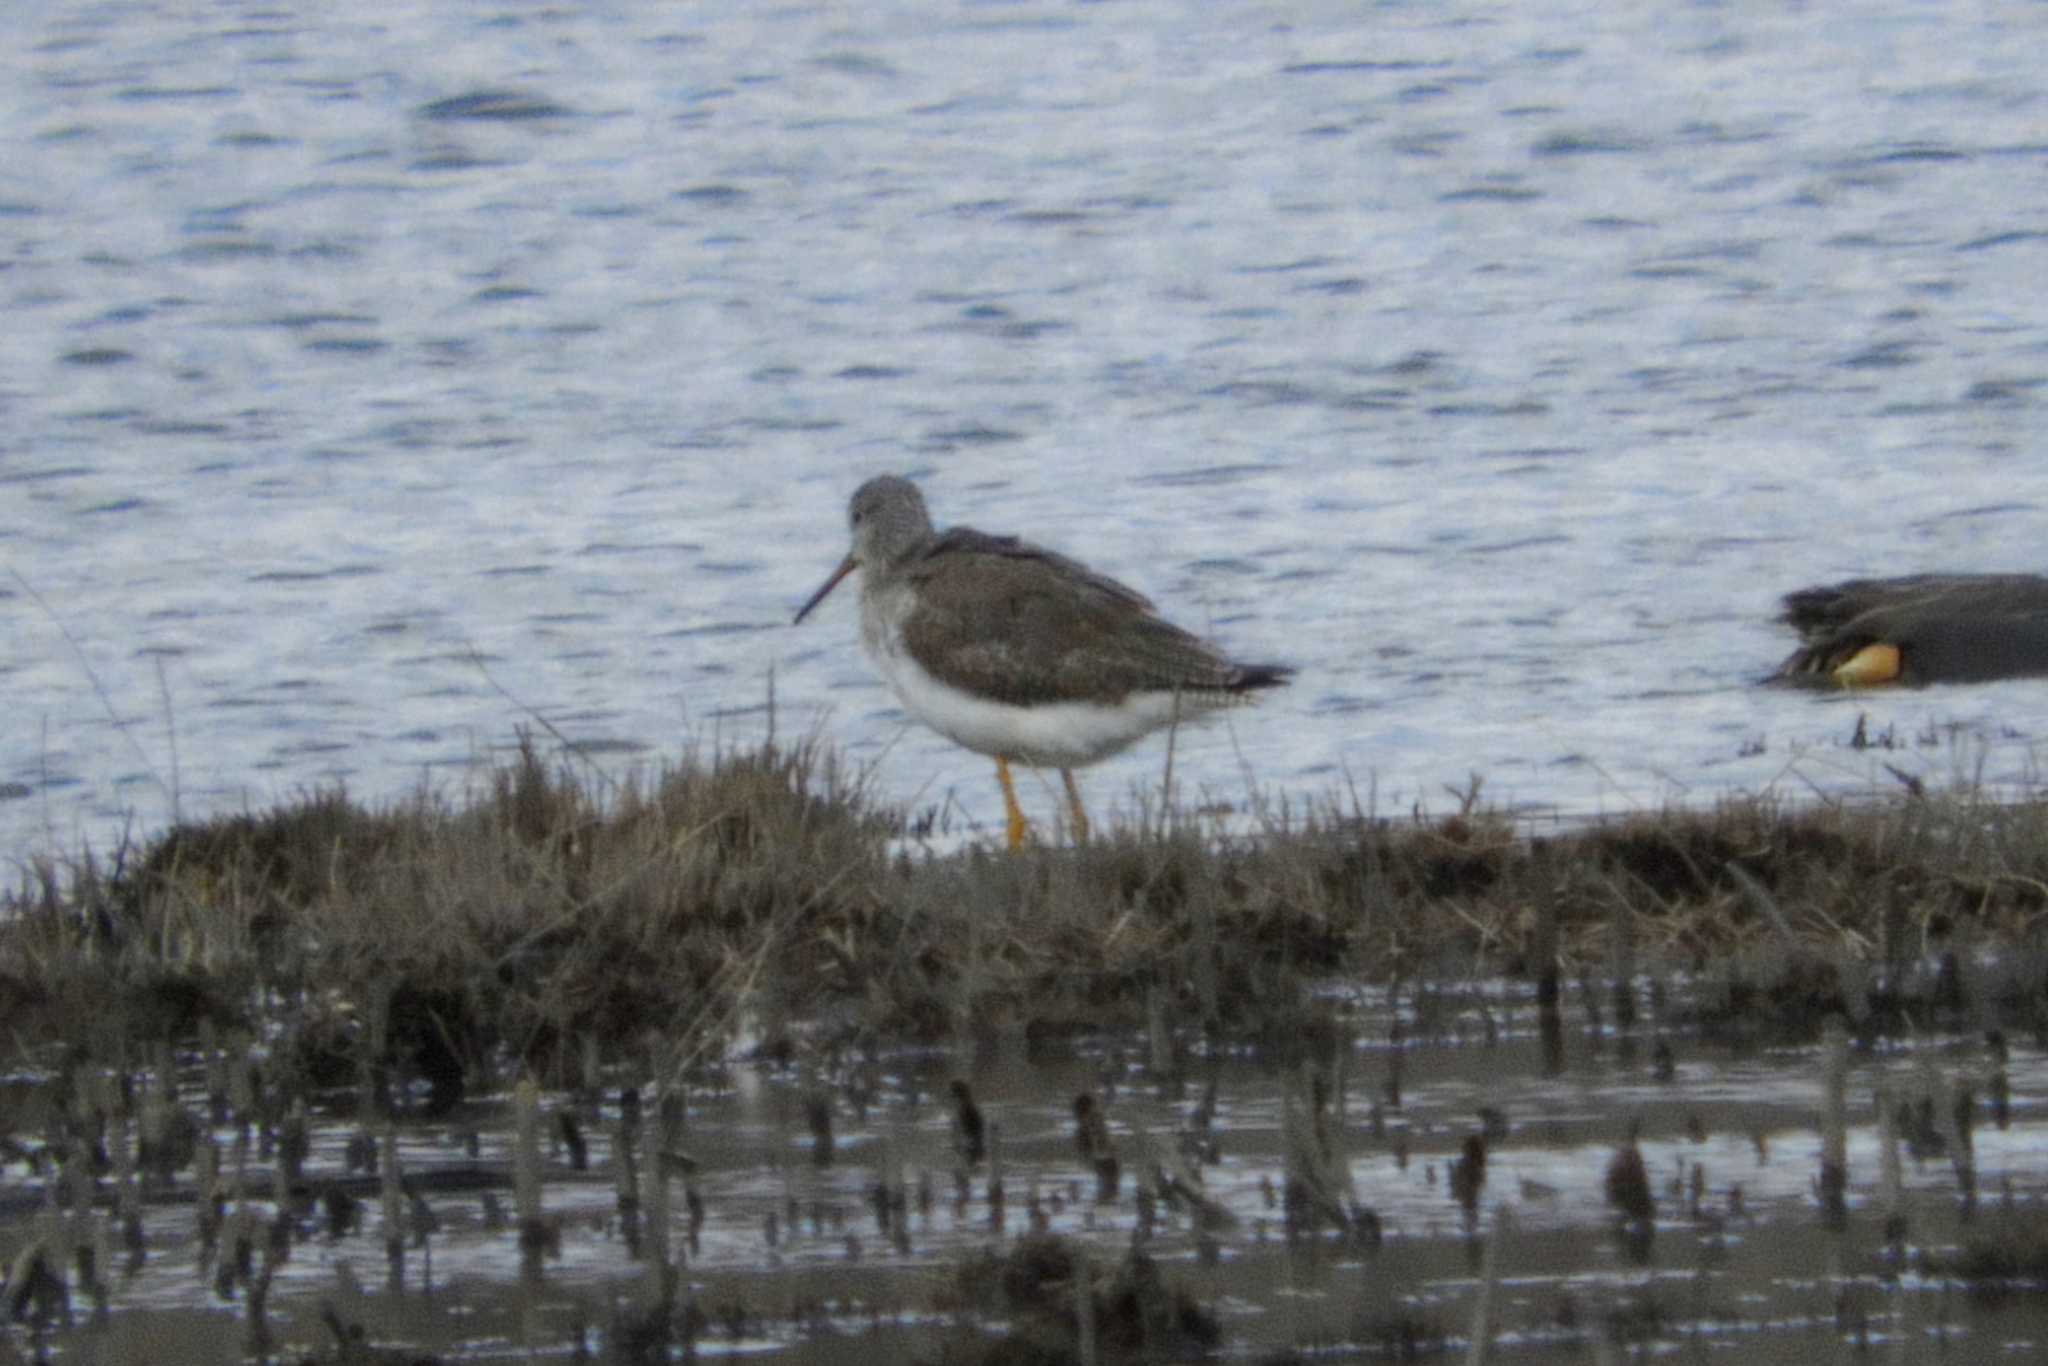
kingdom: Animalia
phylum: Chordata
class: Aves
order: Charadriiformes
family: Scolopacidae
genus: Tringa
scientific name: Tringa melanoleuca
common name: Greater yellowlegs
